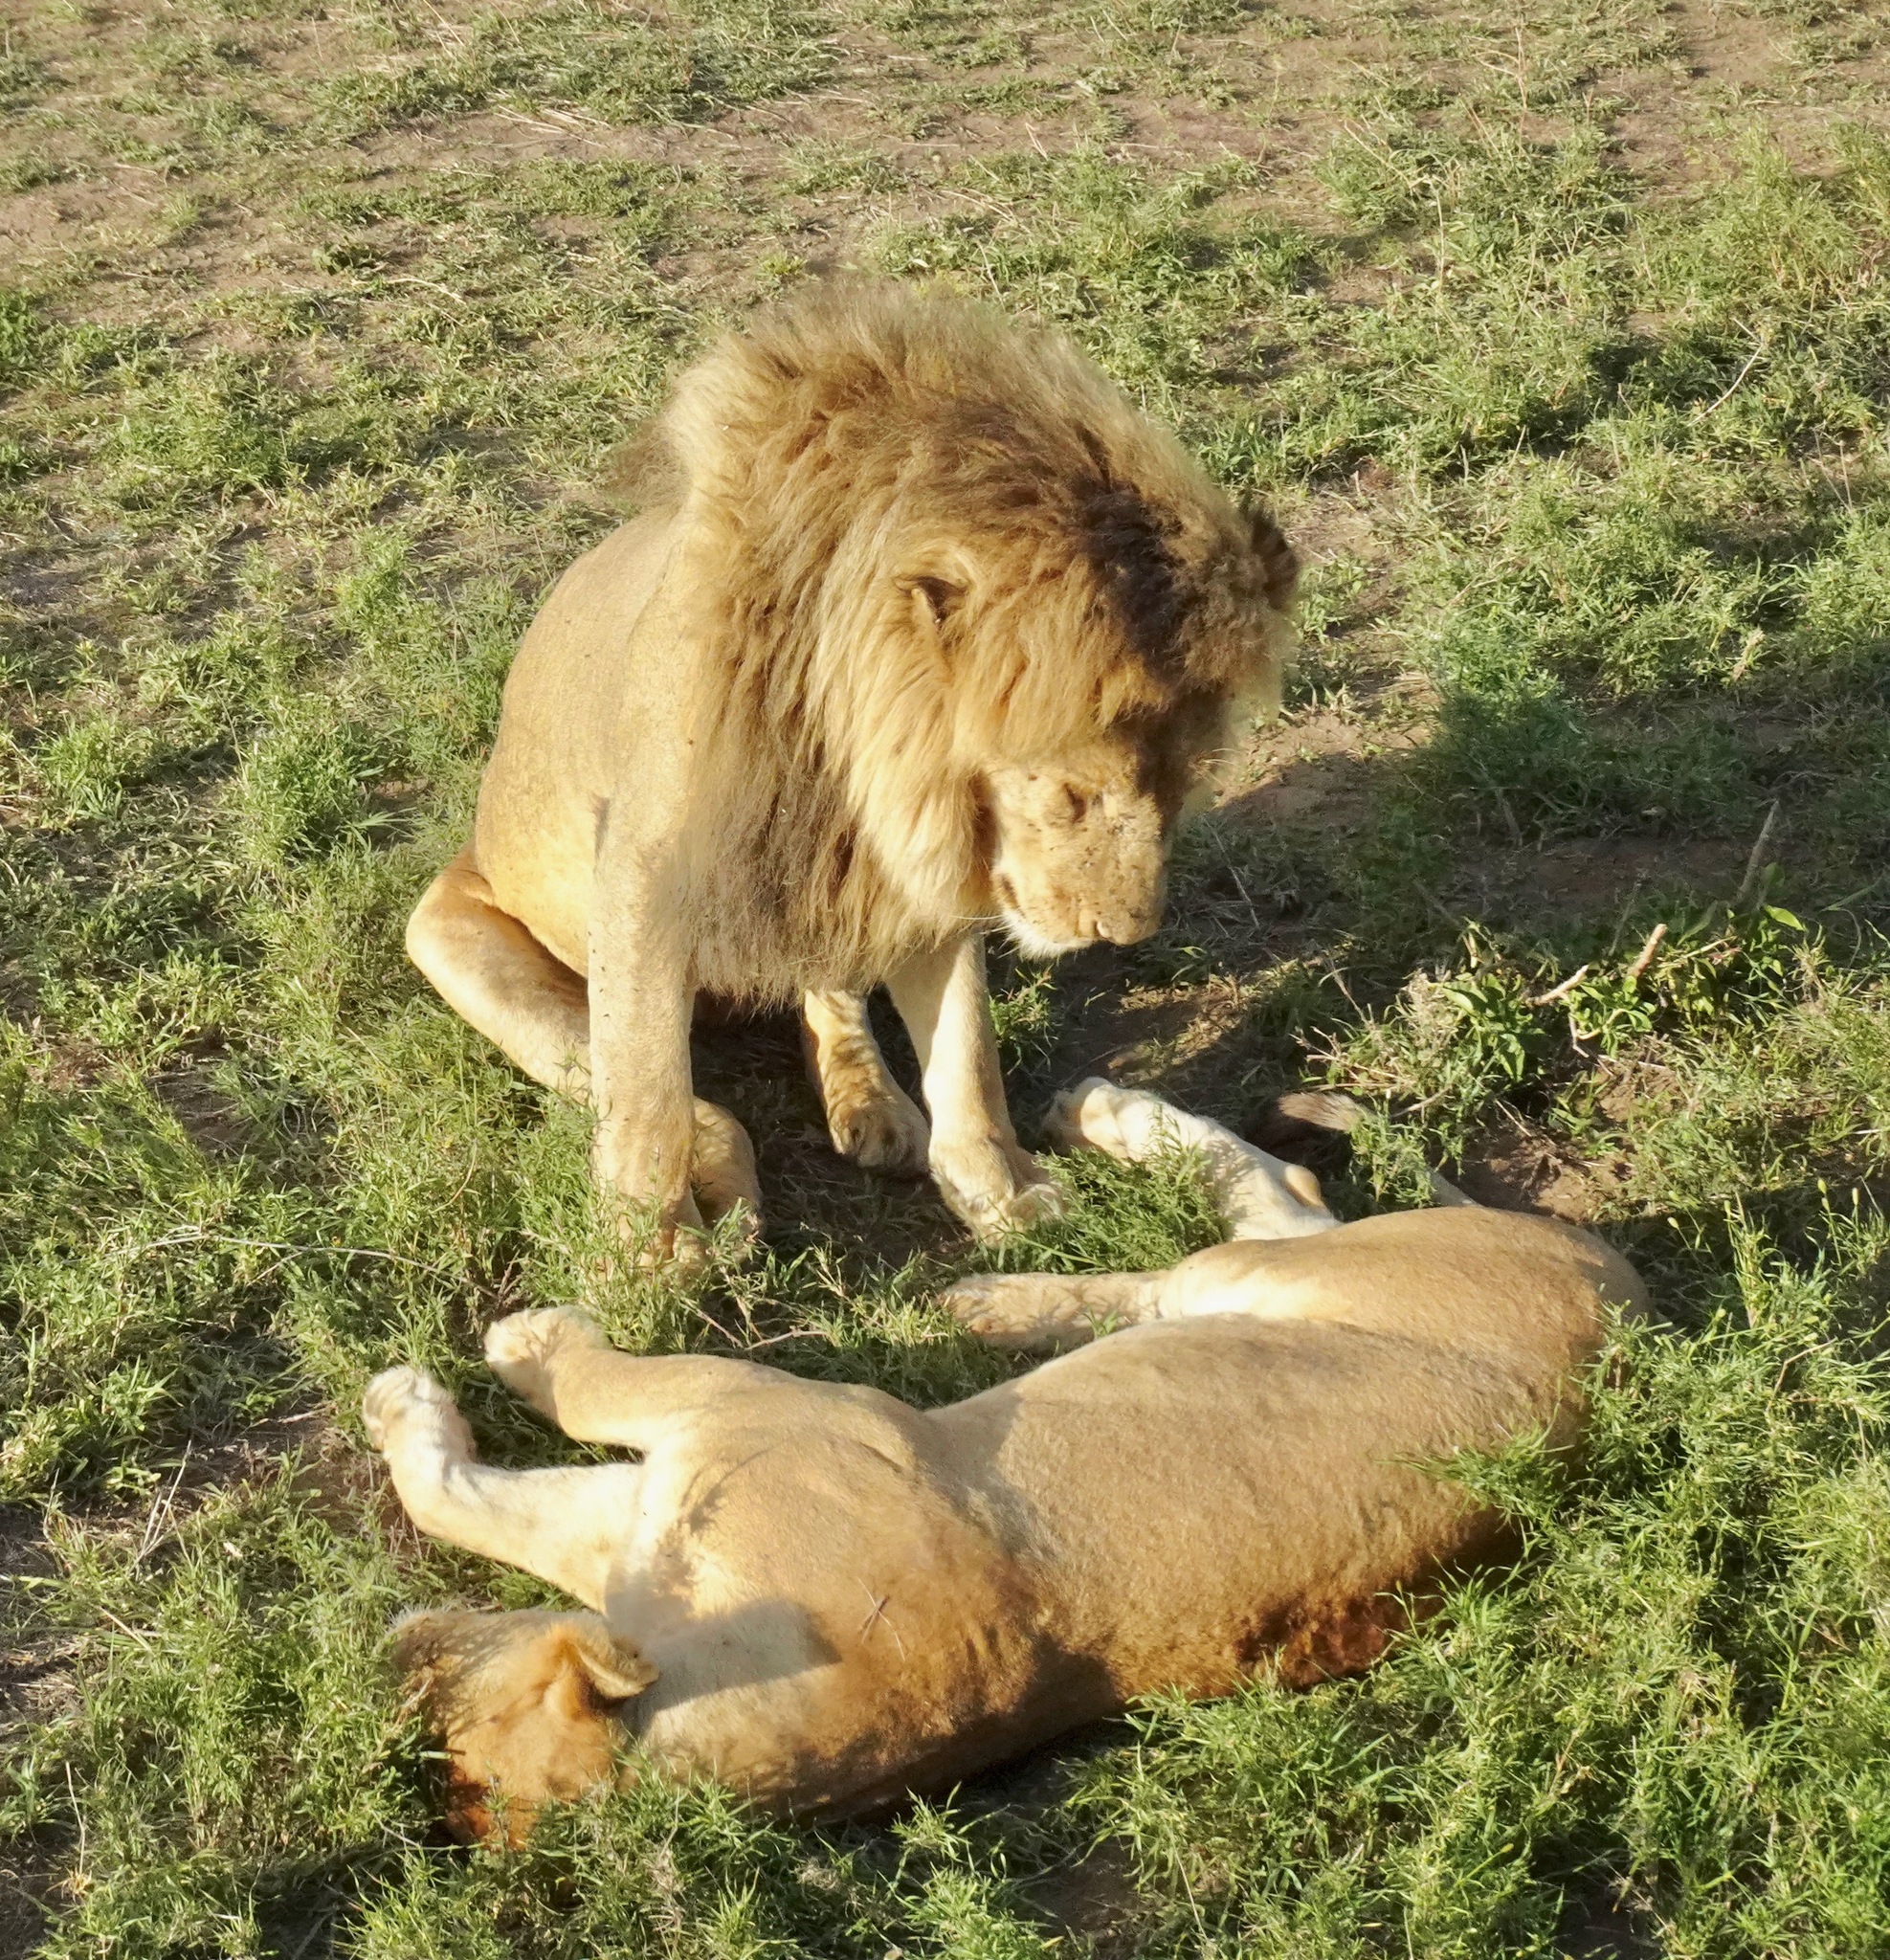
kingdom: Animalia
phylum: Chordata
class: Mammalia
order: Carnivora
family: Felidae
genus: Panthera
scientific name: Panthera leo
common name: Lion
